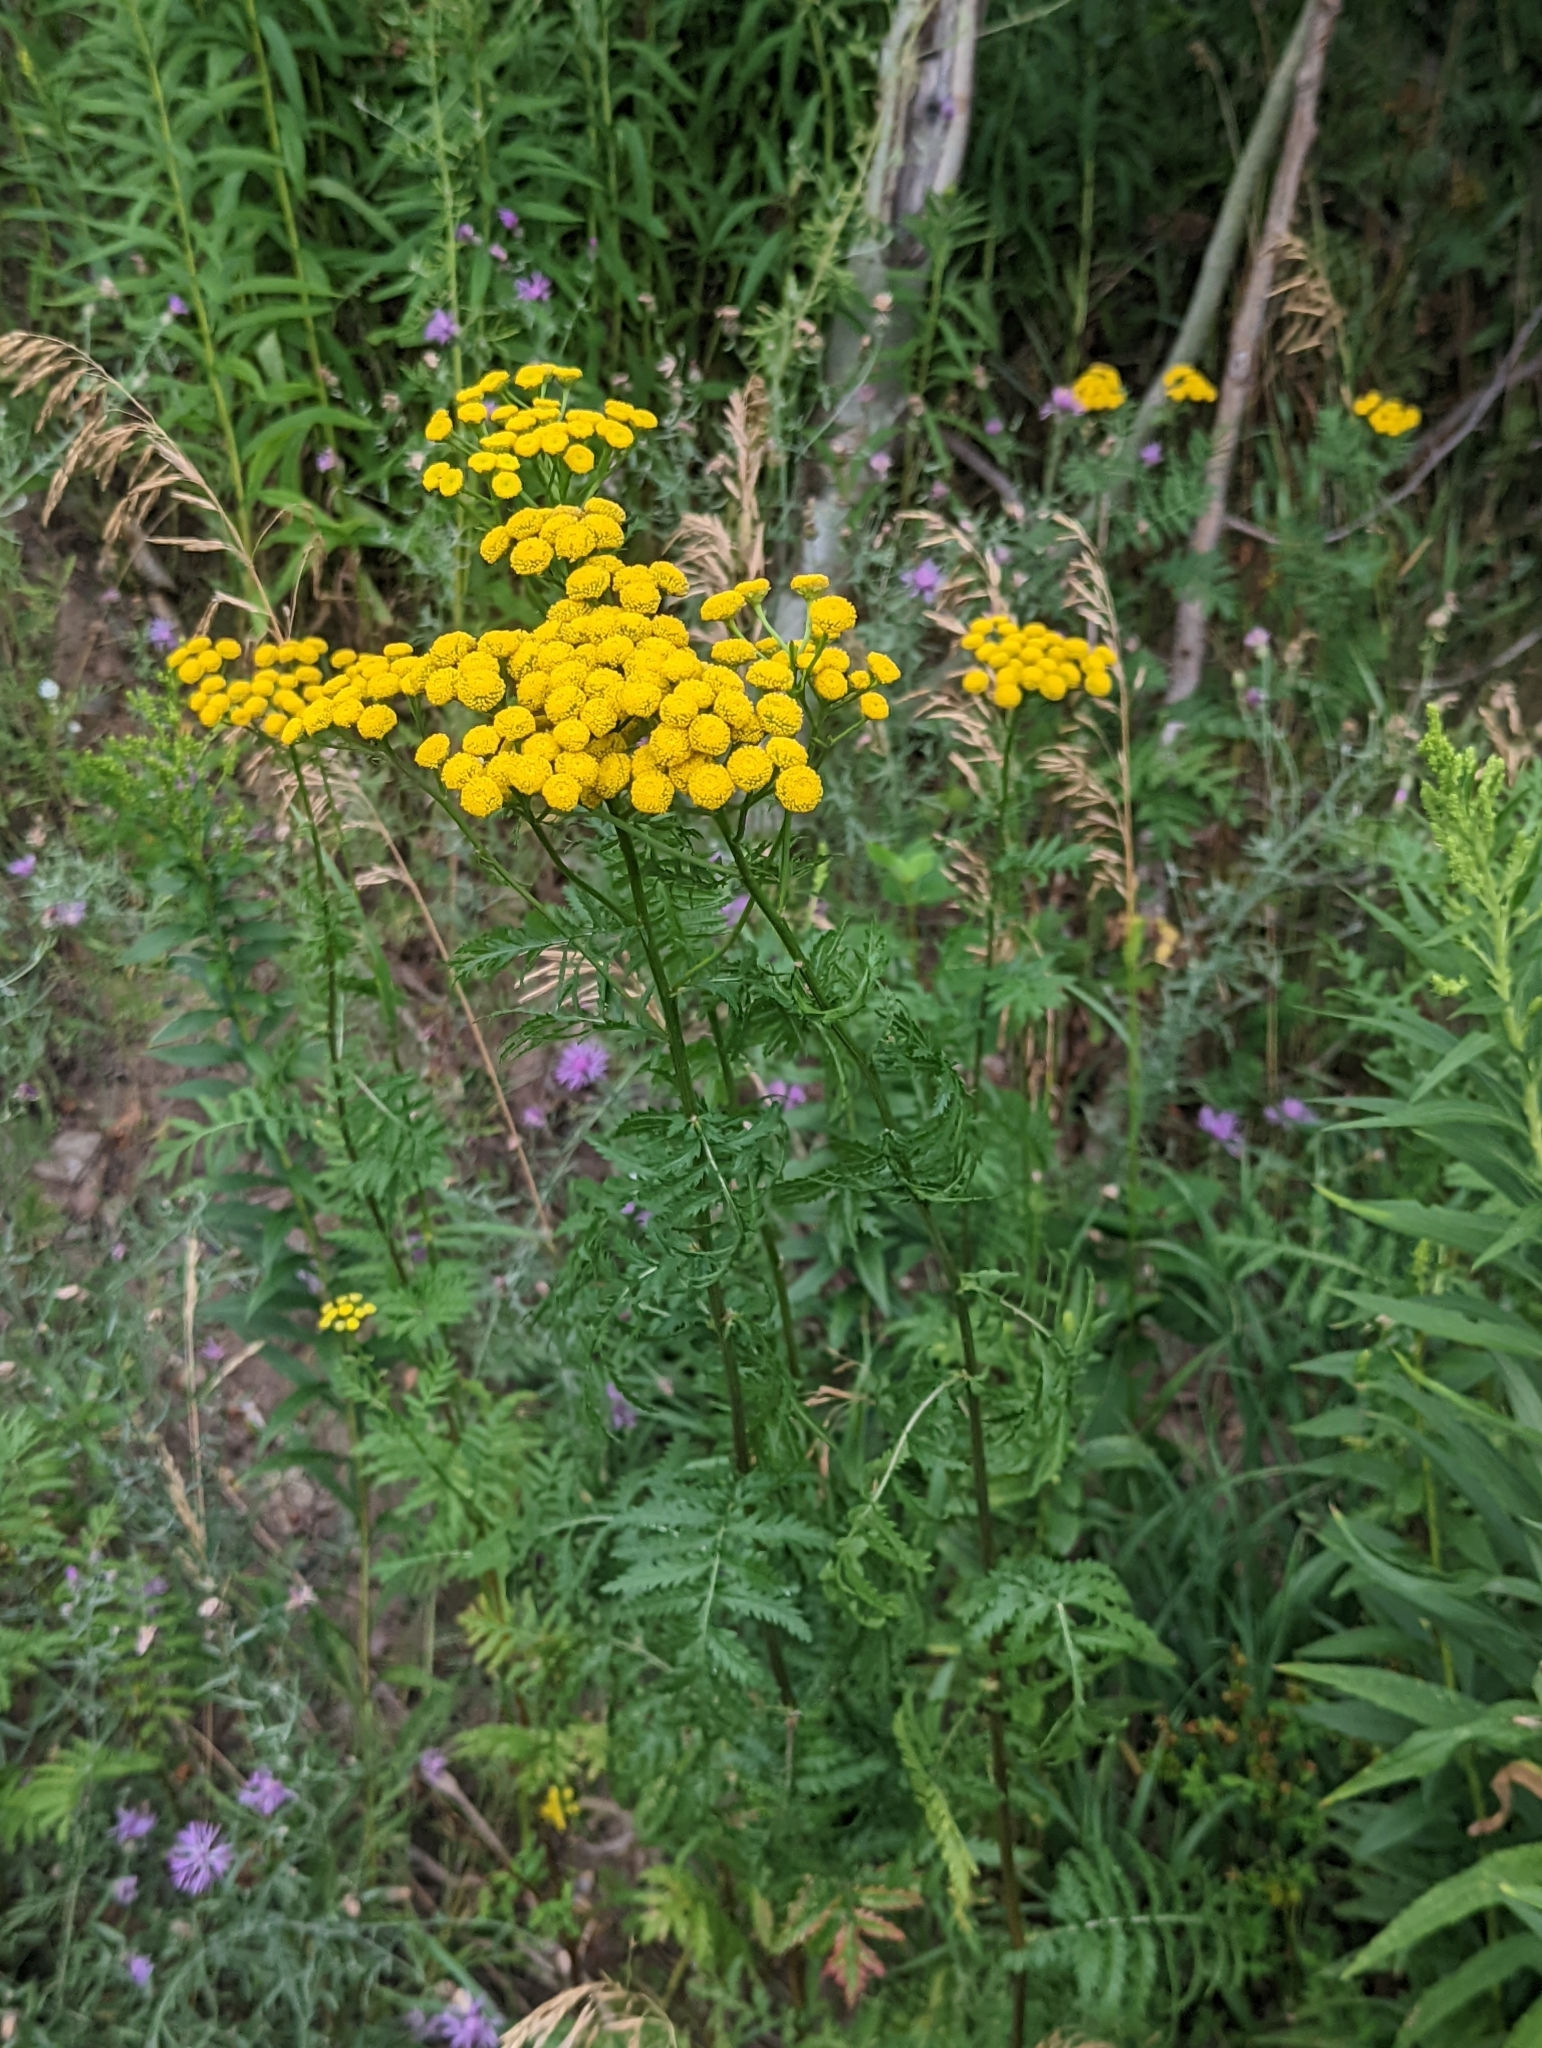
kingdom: Plantae
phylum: Tracheophyta
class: Magnoliopsida
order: Asterales
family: Asteraceae
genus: Tanacetum
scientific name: Tanacetum vulgare
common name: Common tansy
